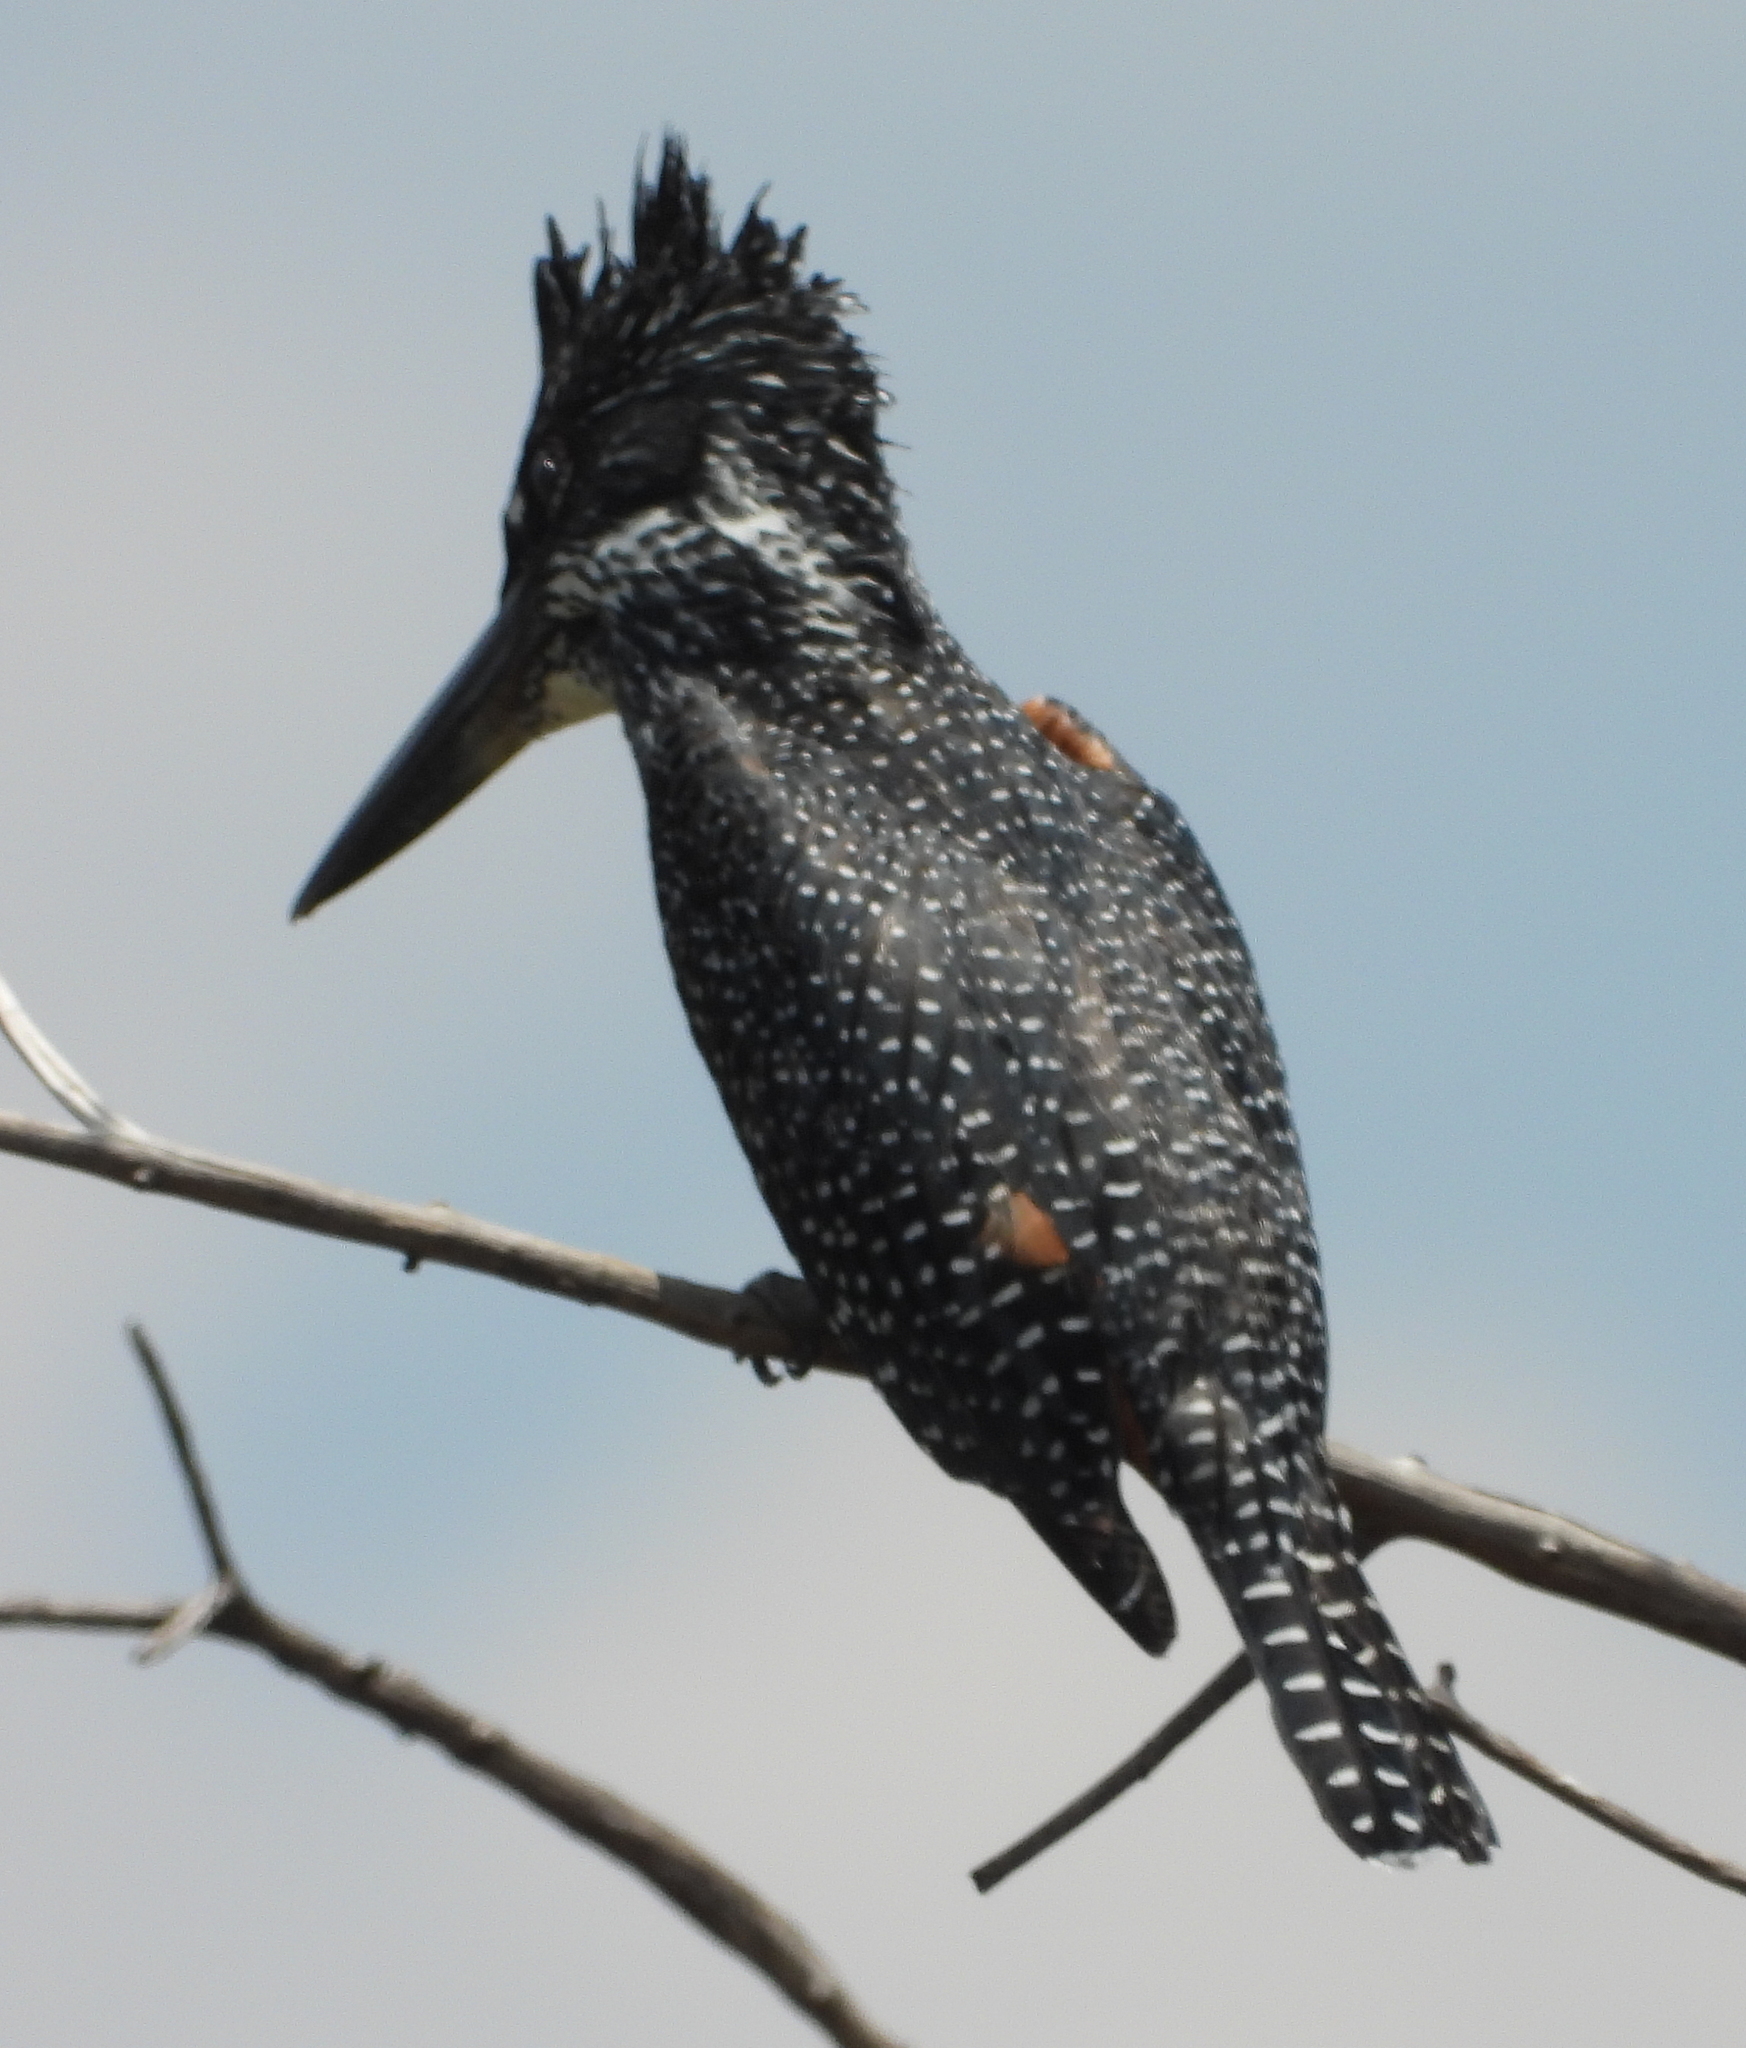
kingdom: Animalia
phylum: Chordata
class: Aves
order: Coraciiformes
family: Alcedinidae
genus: Megaceryle
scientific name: Megaceryle maxima
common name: Giant kingfisher
